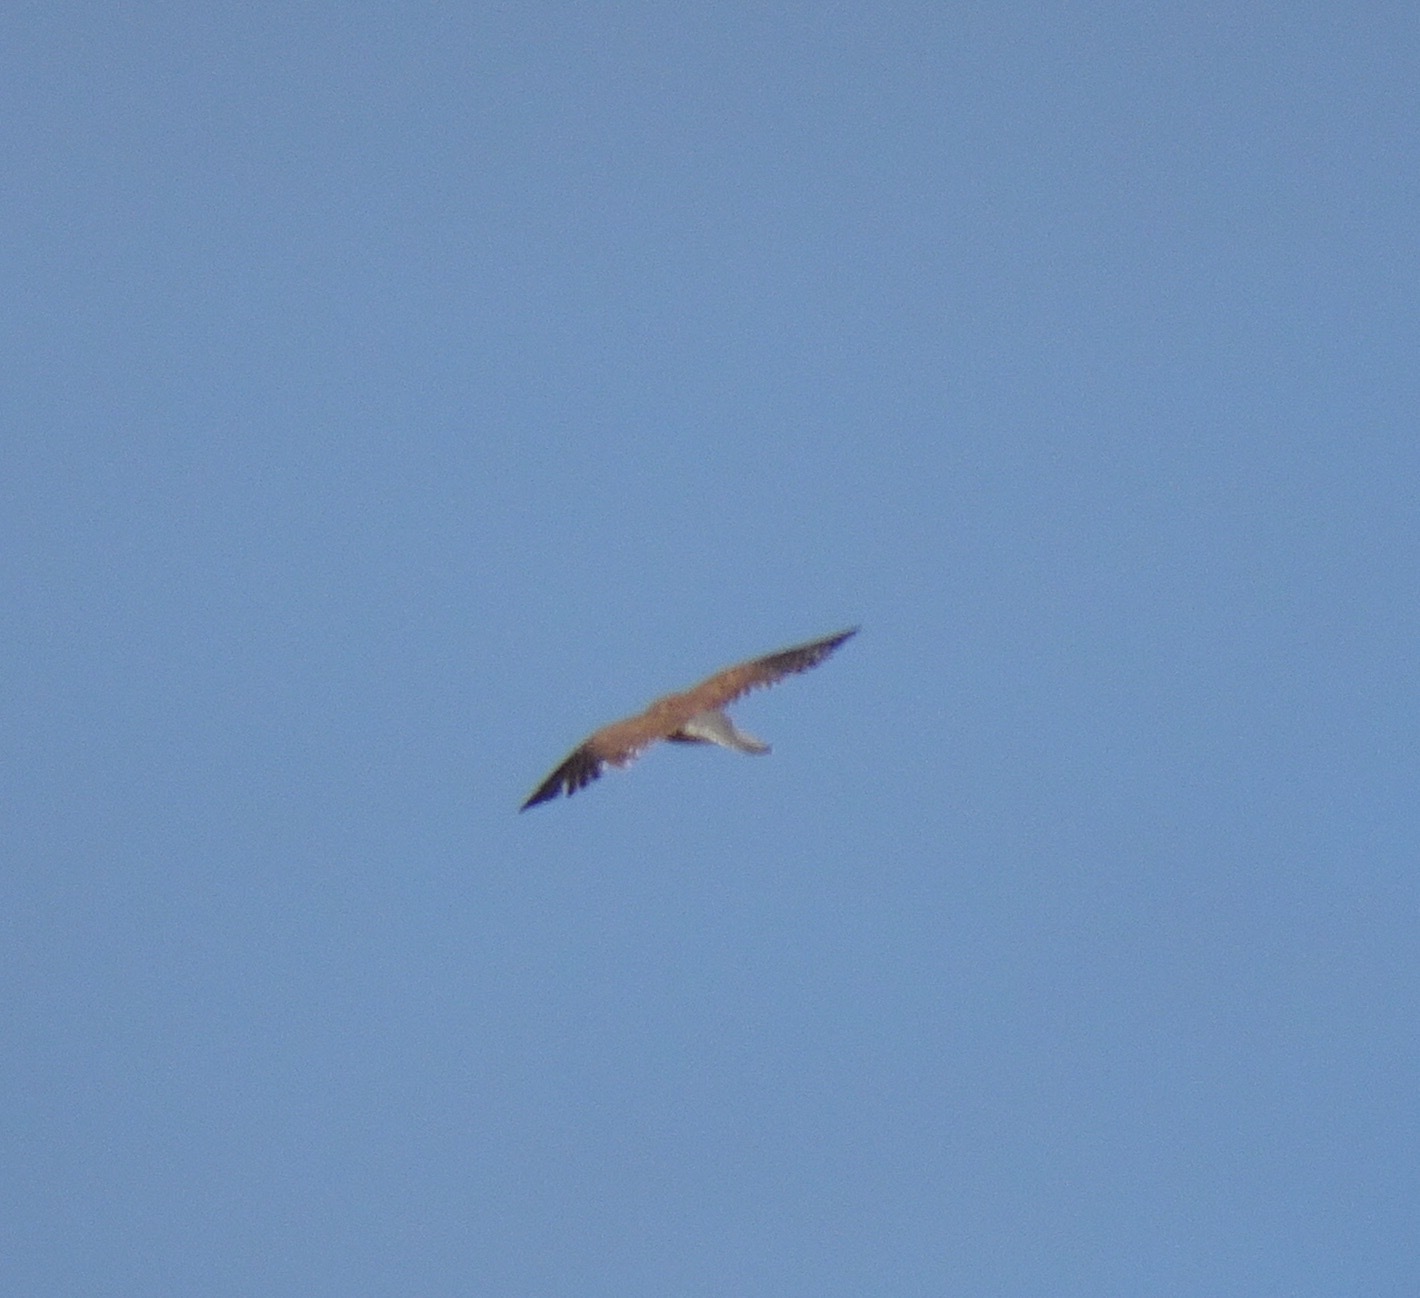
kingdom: Animalia
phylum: Chordata
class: Aves
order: Falconiformes
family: Falconidae
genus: Falco
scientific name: Falco tinnunculus
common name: Common kestrel
